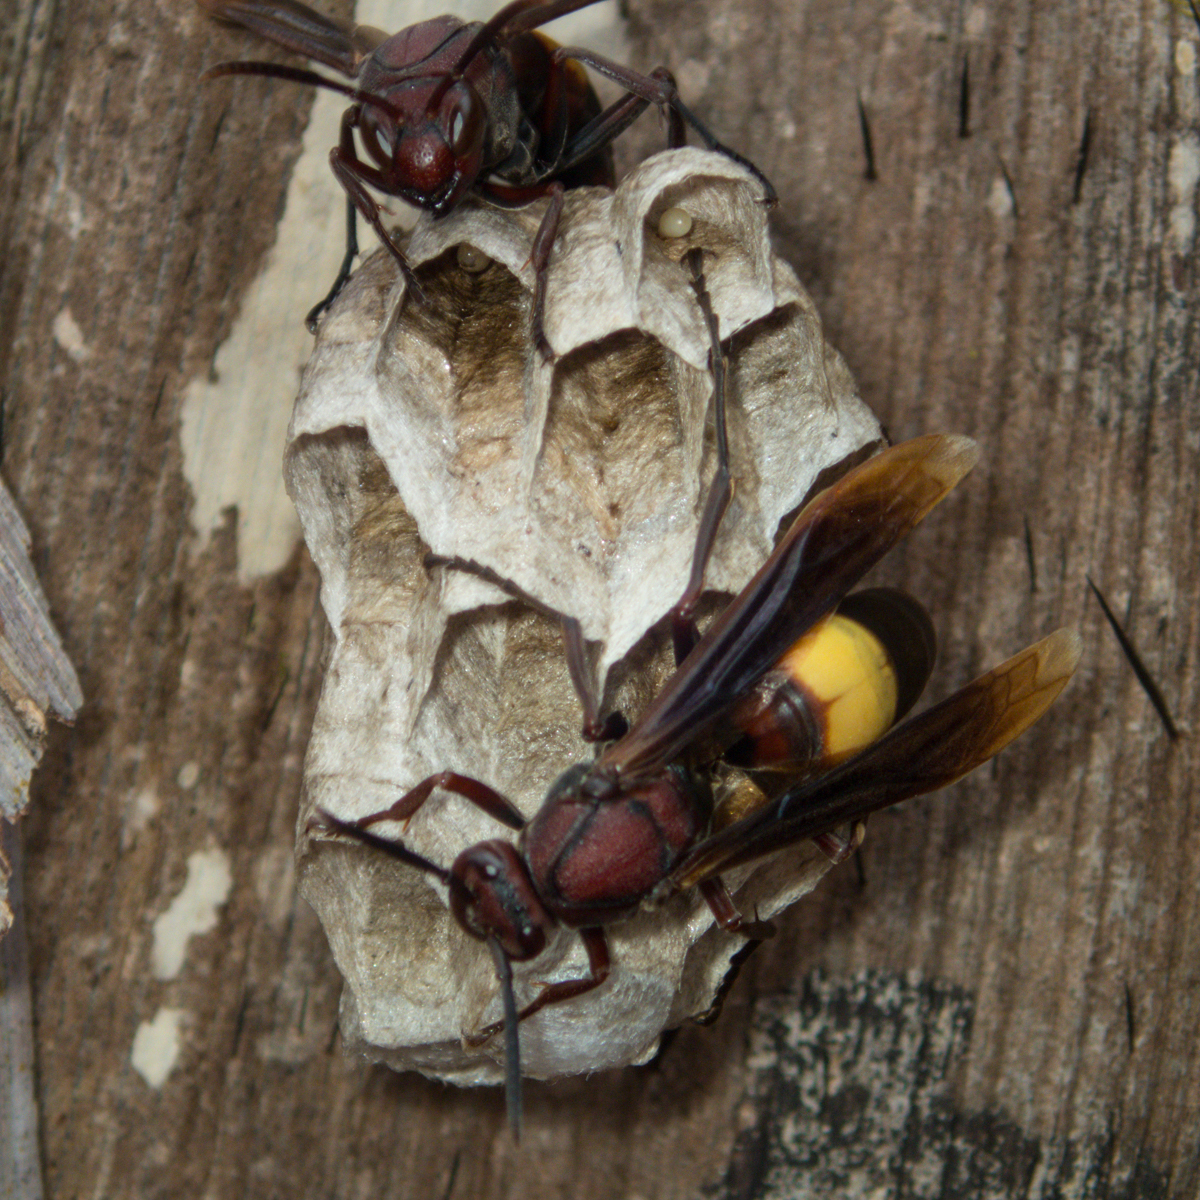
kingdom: Animalia
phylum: Arthropoda
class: Insecta
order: Hymenoptera
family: Eumenidae
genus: Polistes
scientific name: Polistes sagittarius
